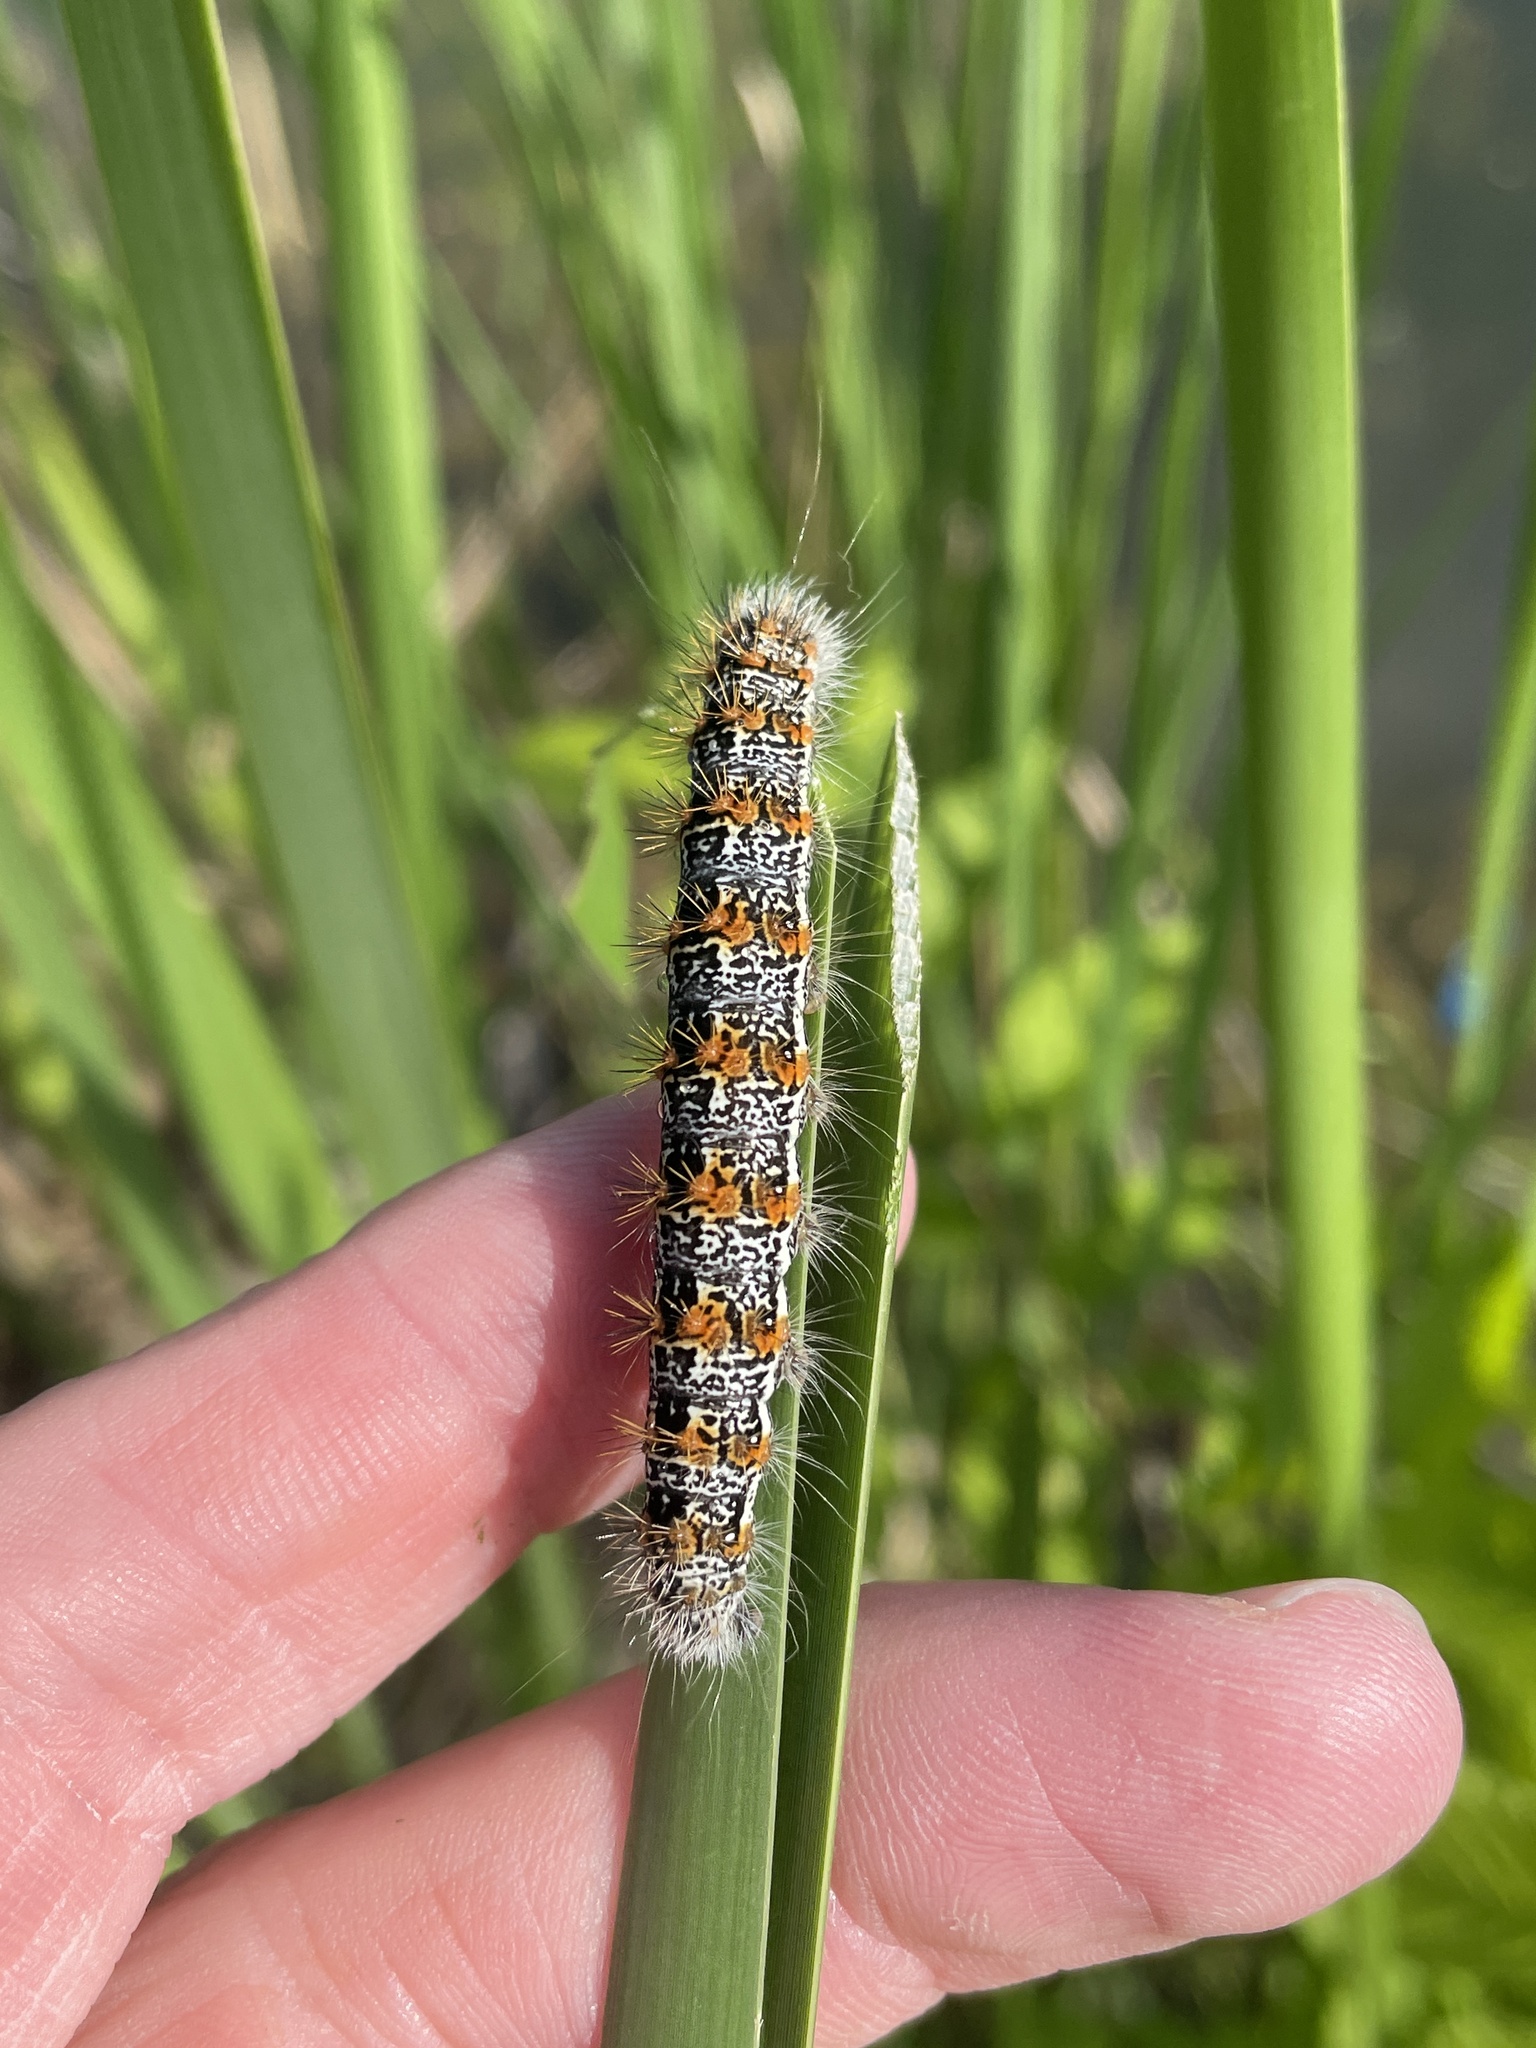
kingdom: Animalia
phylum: Arthropoda
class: Insecta
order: Lepidoptera
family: Noctuidae
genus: Acronicta
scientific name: Acronicta insularis
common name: Henry's marsh moth
